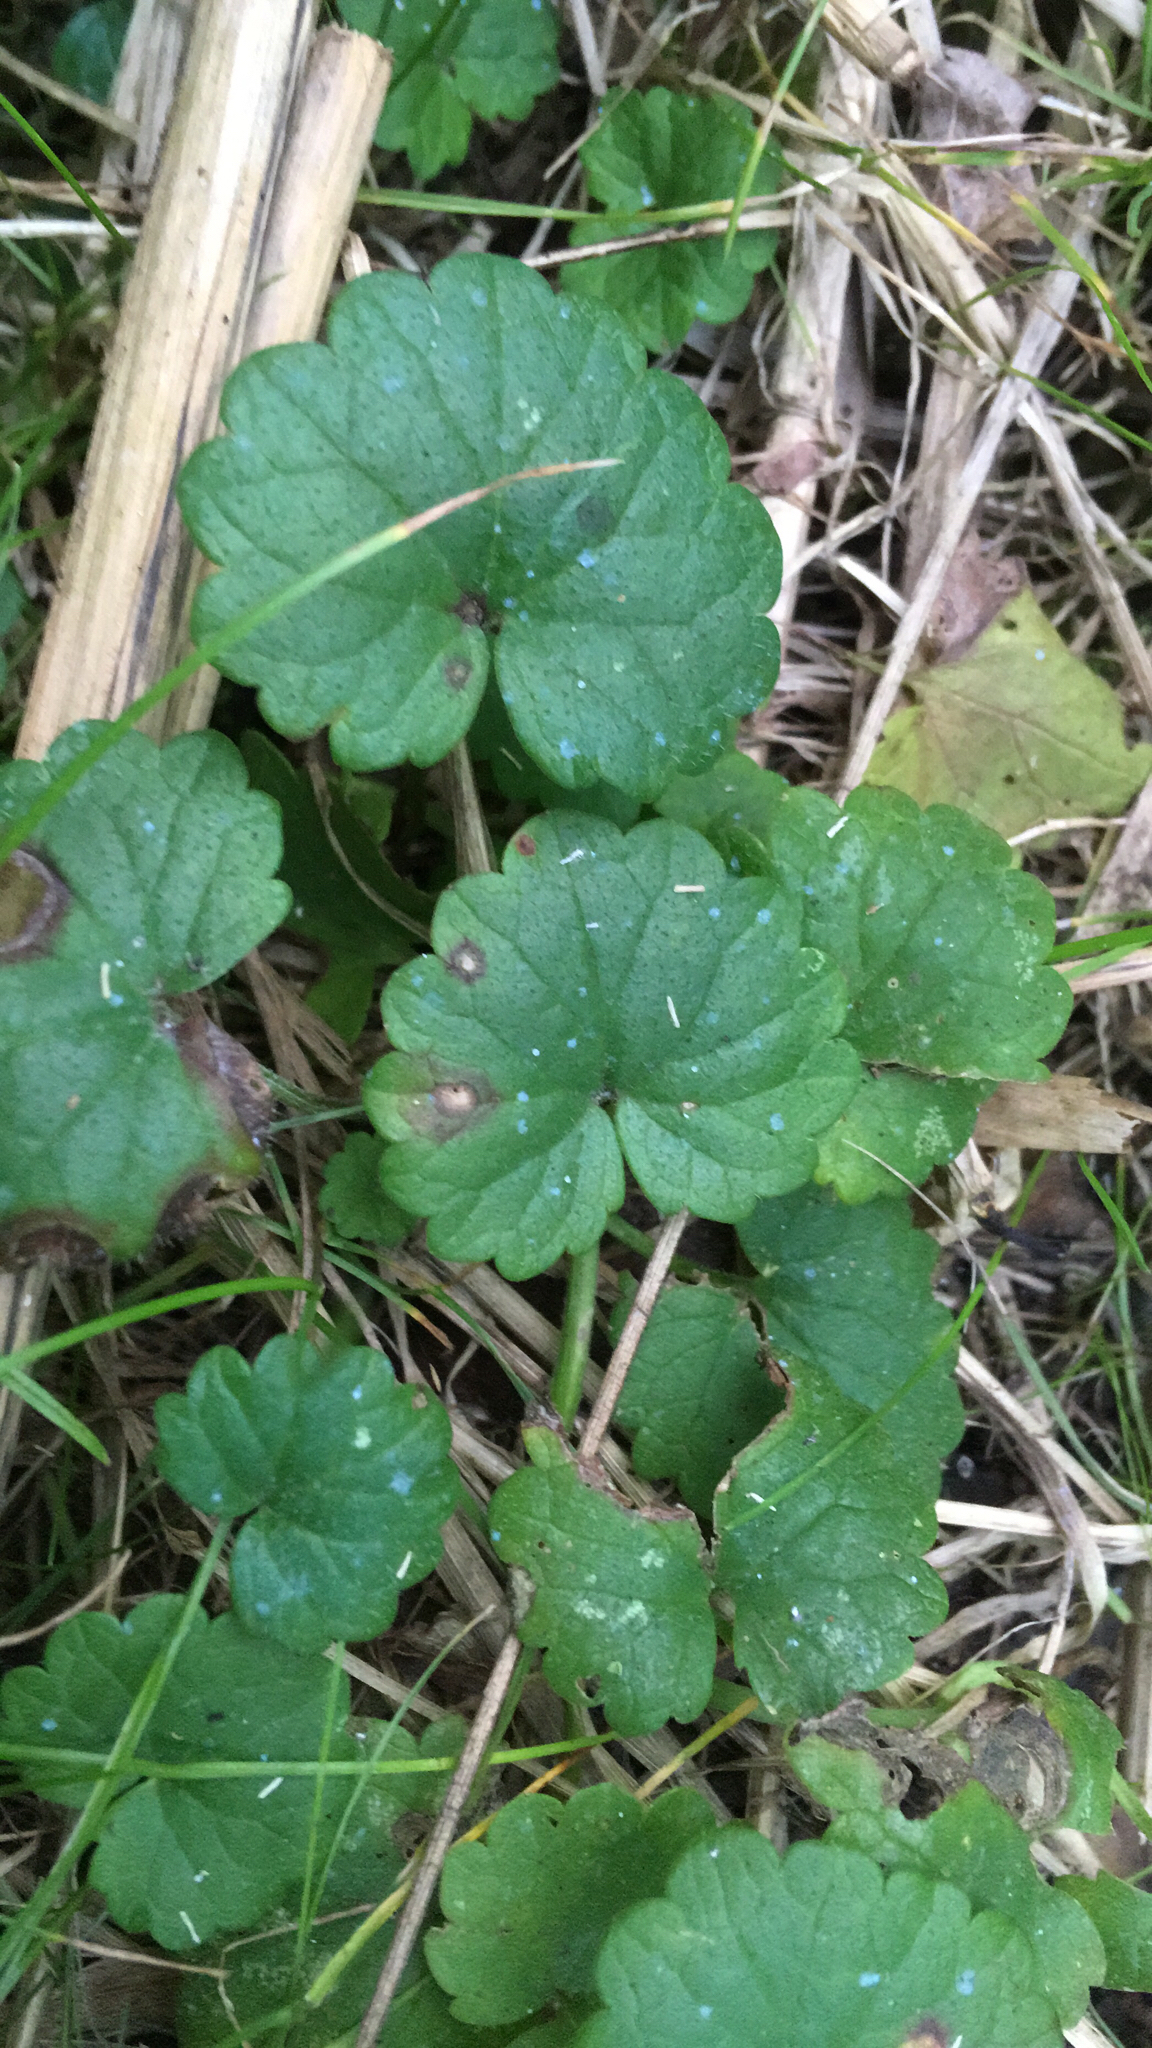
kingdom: Plantae
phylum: Tracheophyta
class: Magnoliopsida
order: Lamiales
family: Lamiaceae
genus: Glechoma
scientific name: Glechoma hederacea
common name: Ground ivy
